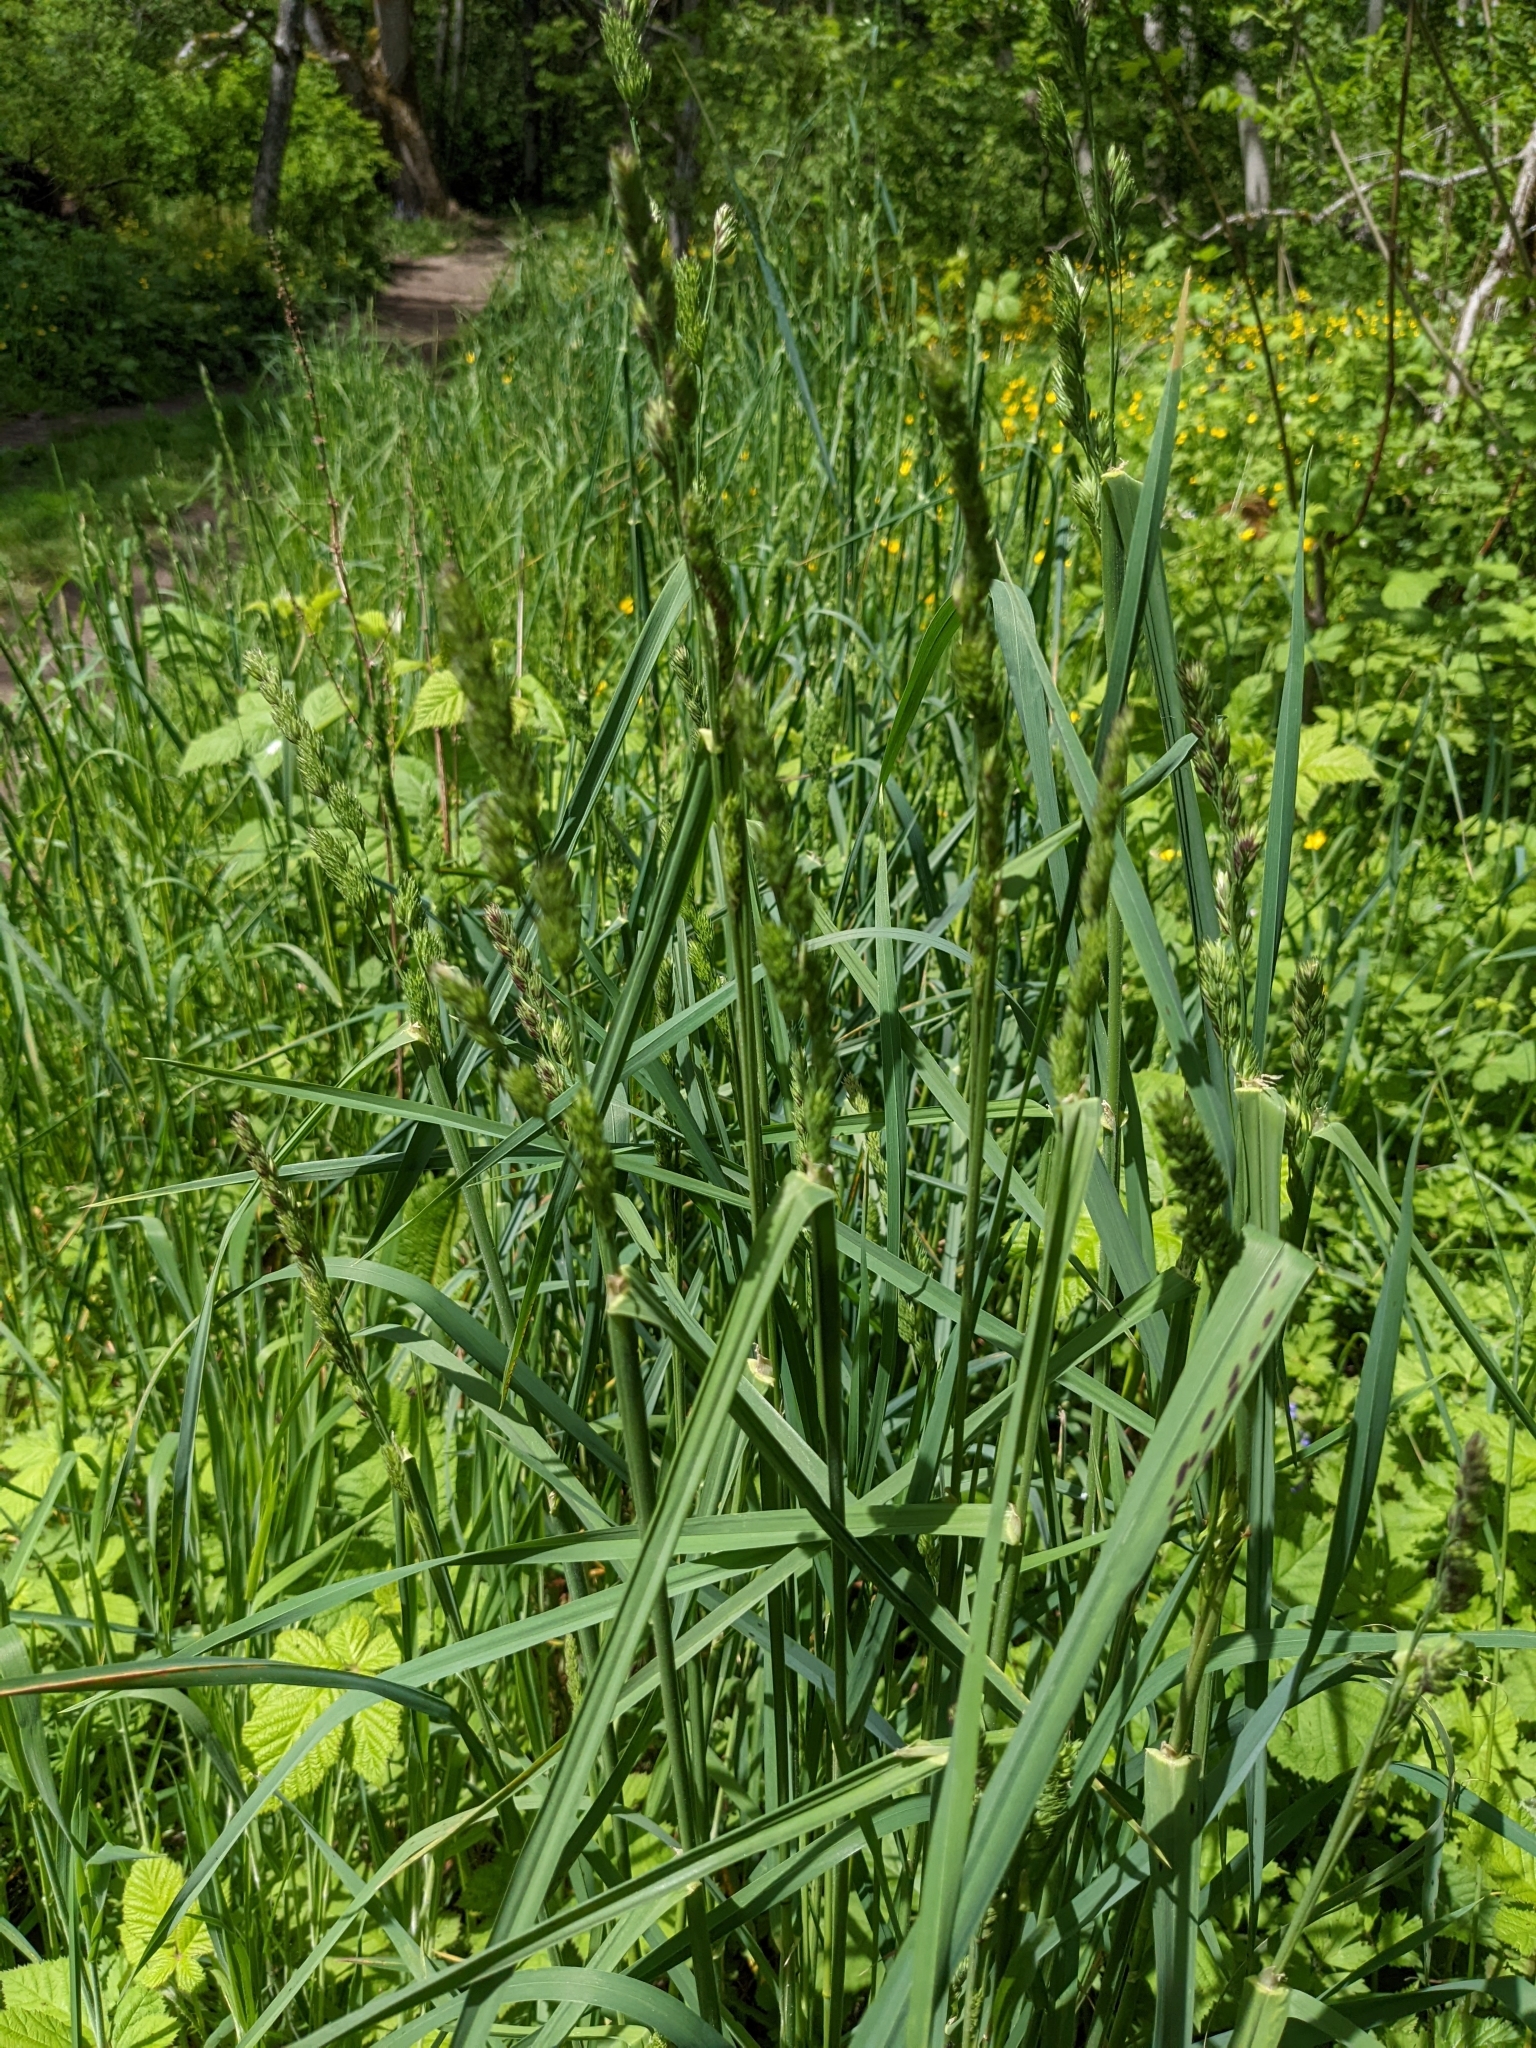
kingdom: Plantae
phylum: Tracheophyta
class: Liliopsida
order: Poales
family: Poaceae
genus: Dactylis
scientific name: Dactylis glomerata
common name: Orchardgrass
